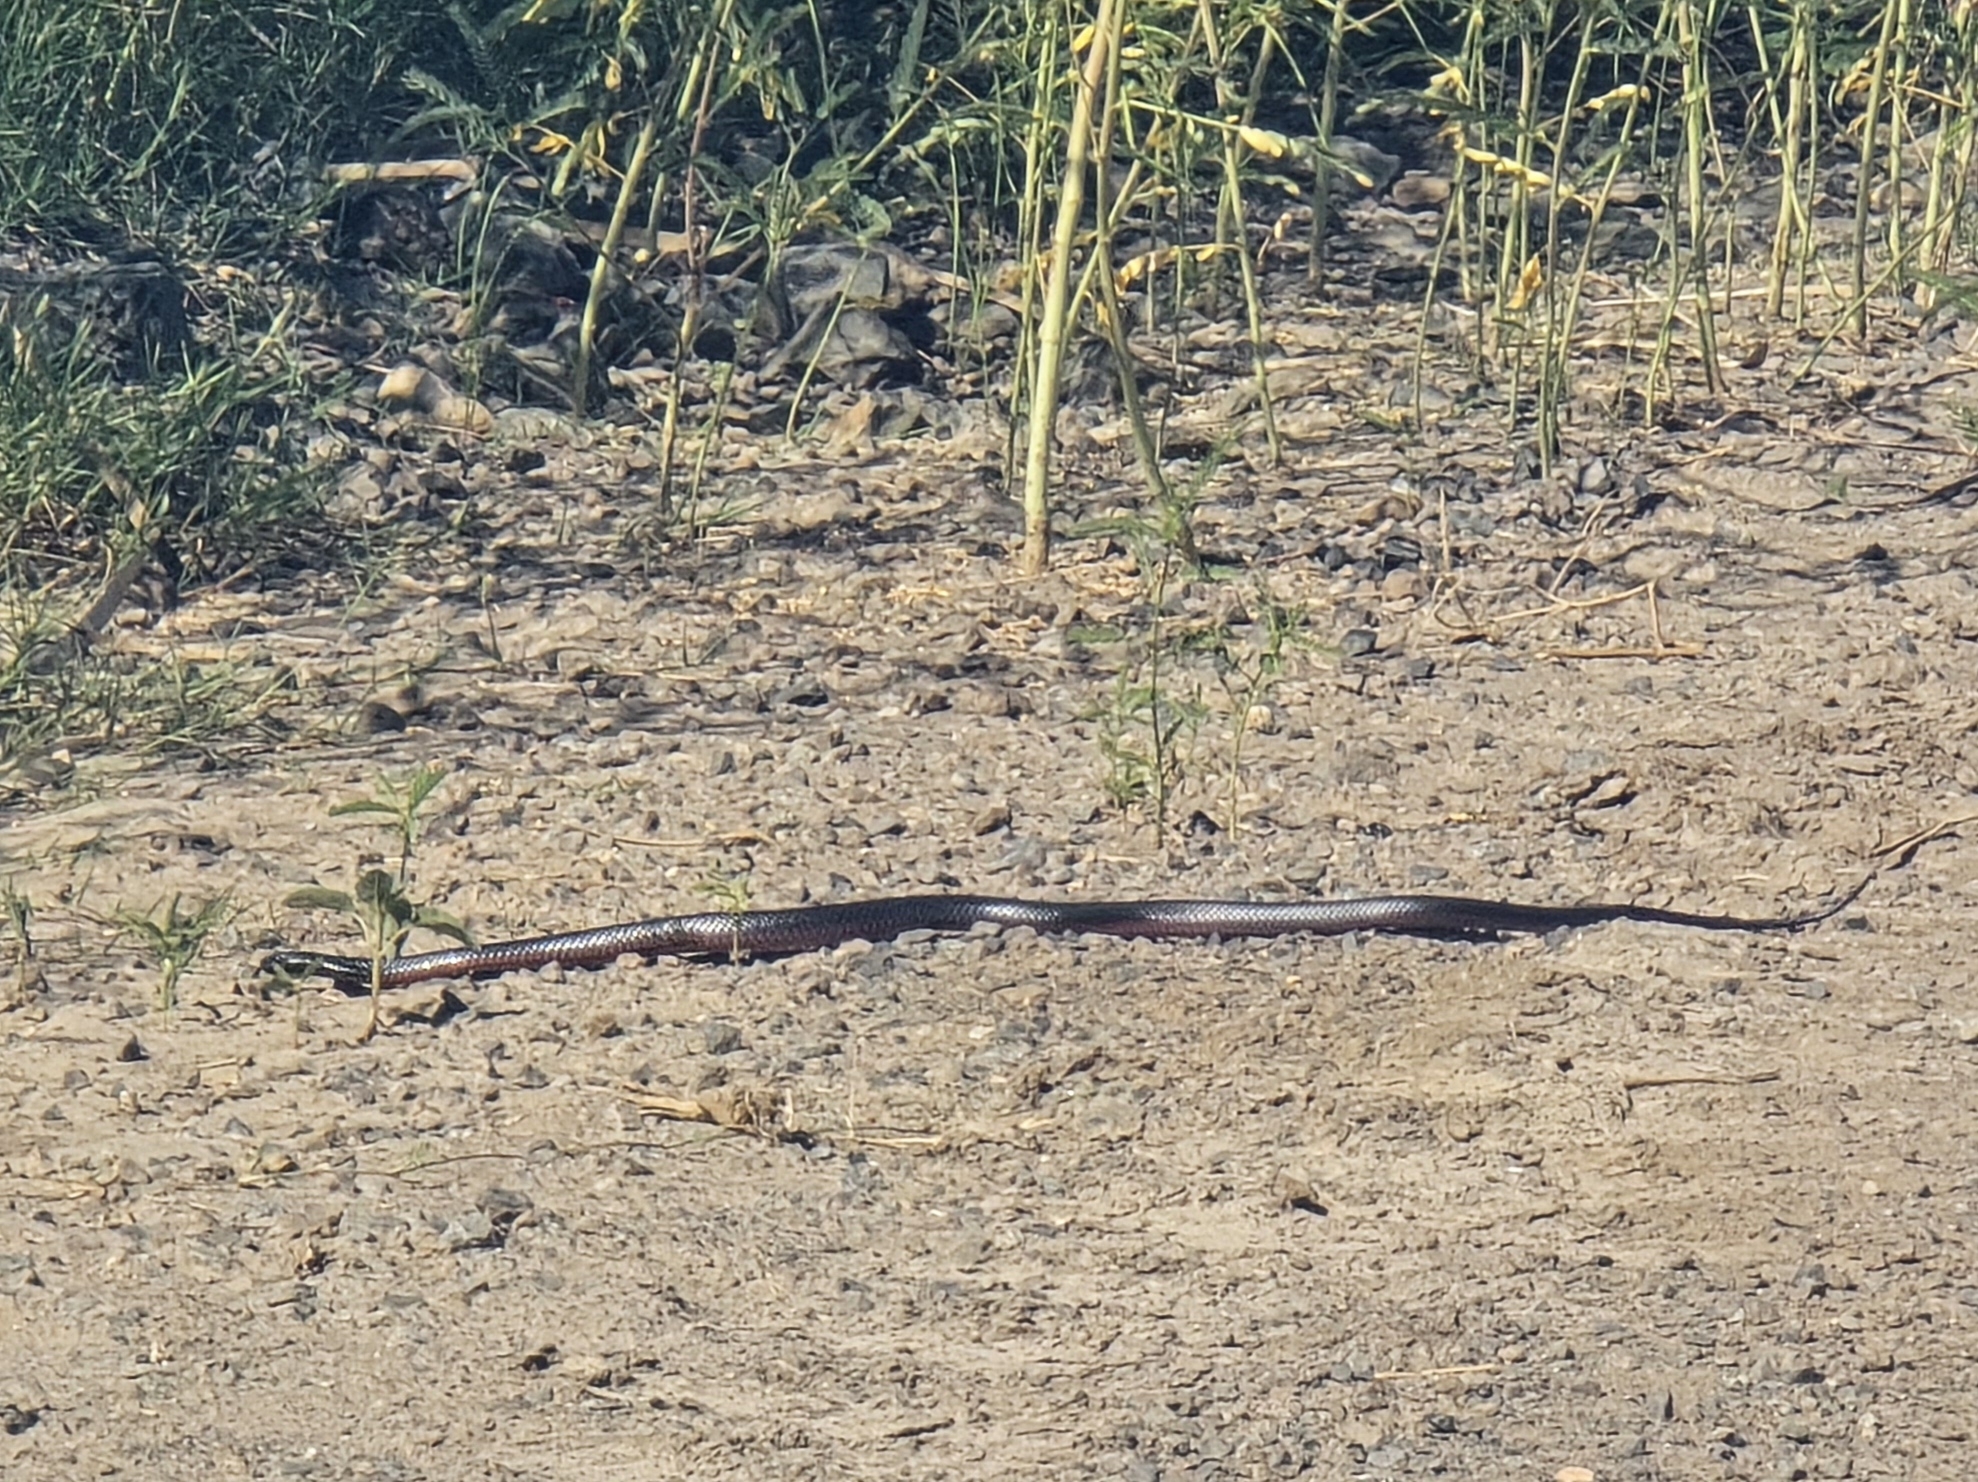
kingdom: Animalia
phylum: Chordata
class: Squamata
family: Elapidae
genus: Pseudechis
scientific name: Pseudechis porphyriacus
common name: Australian black snake
